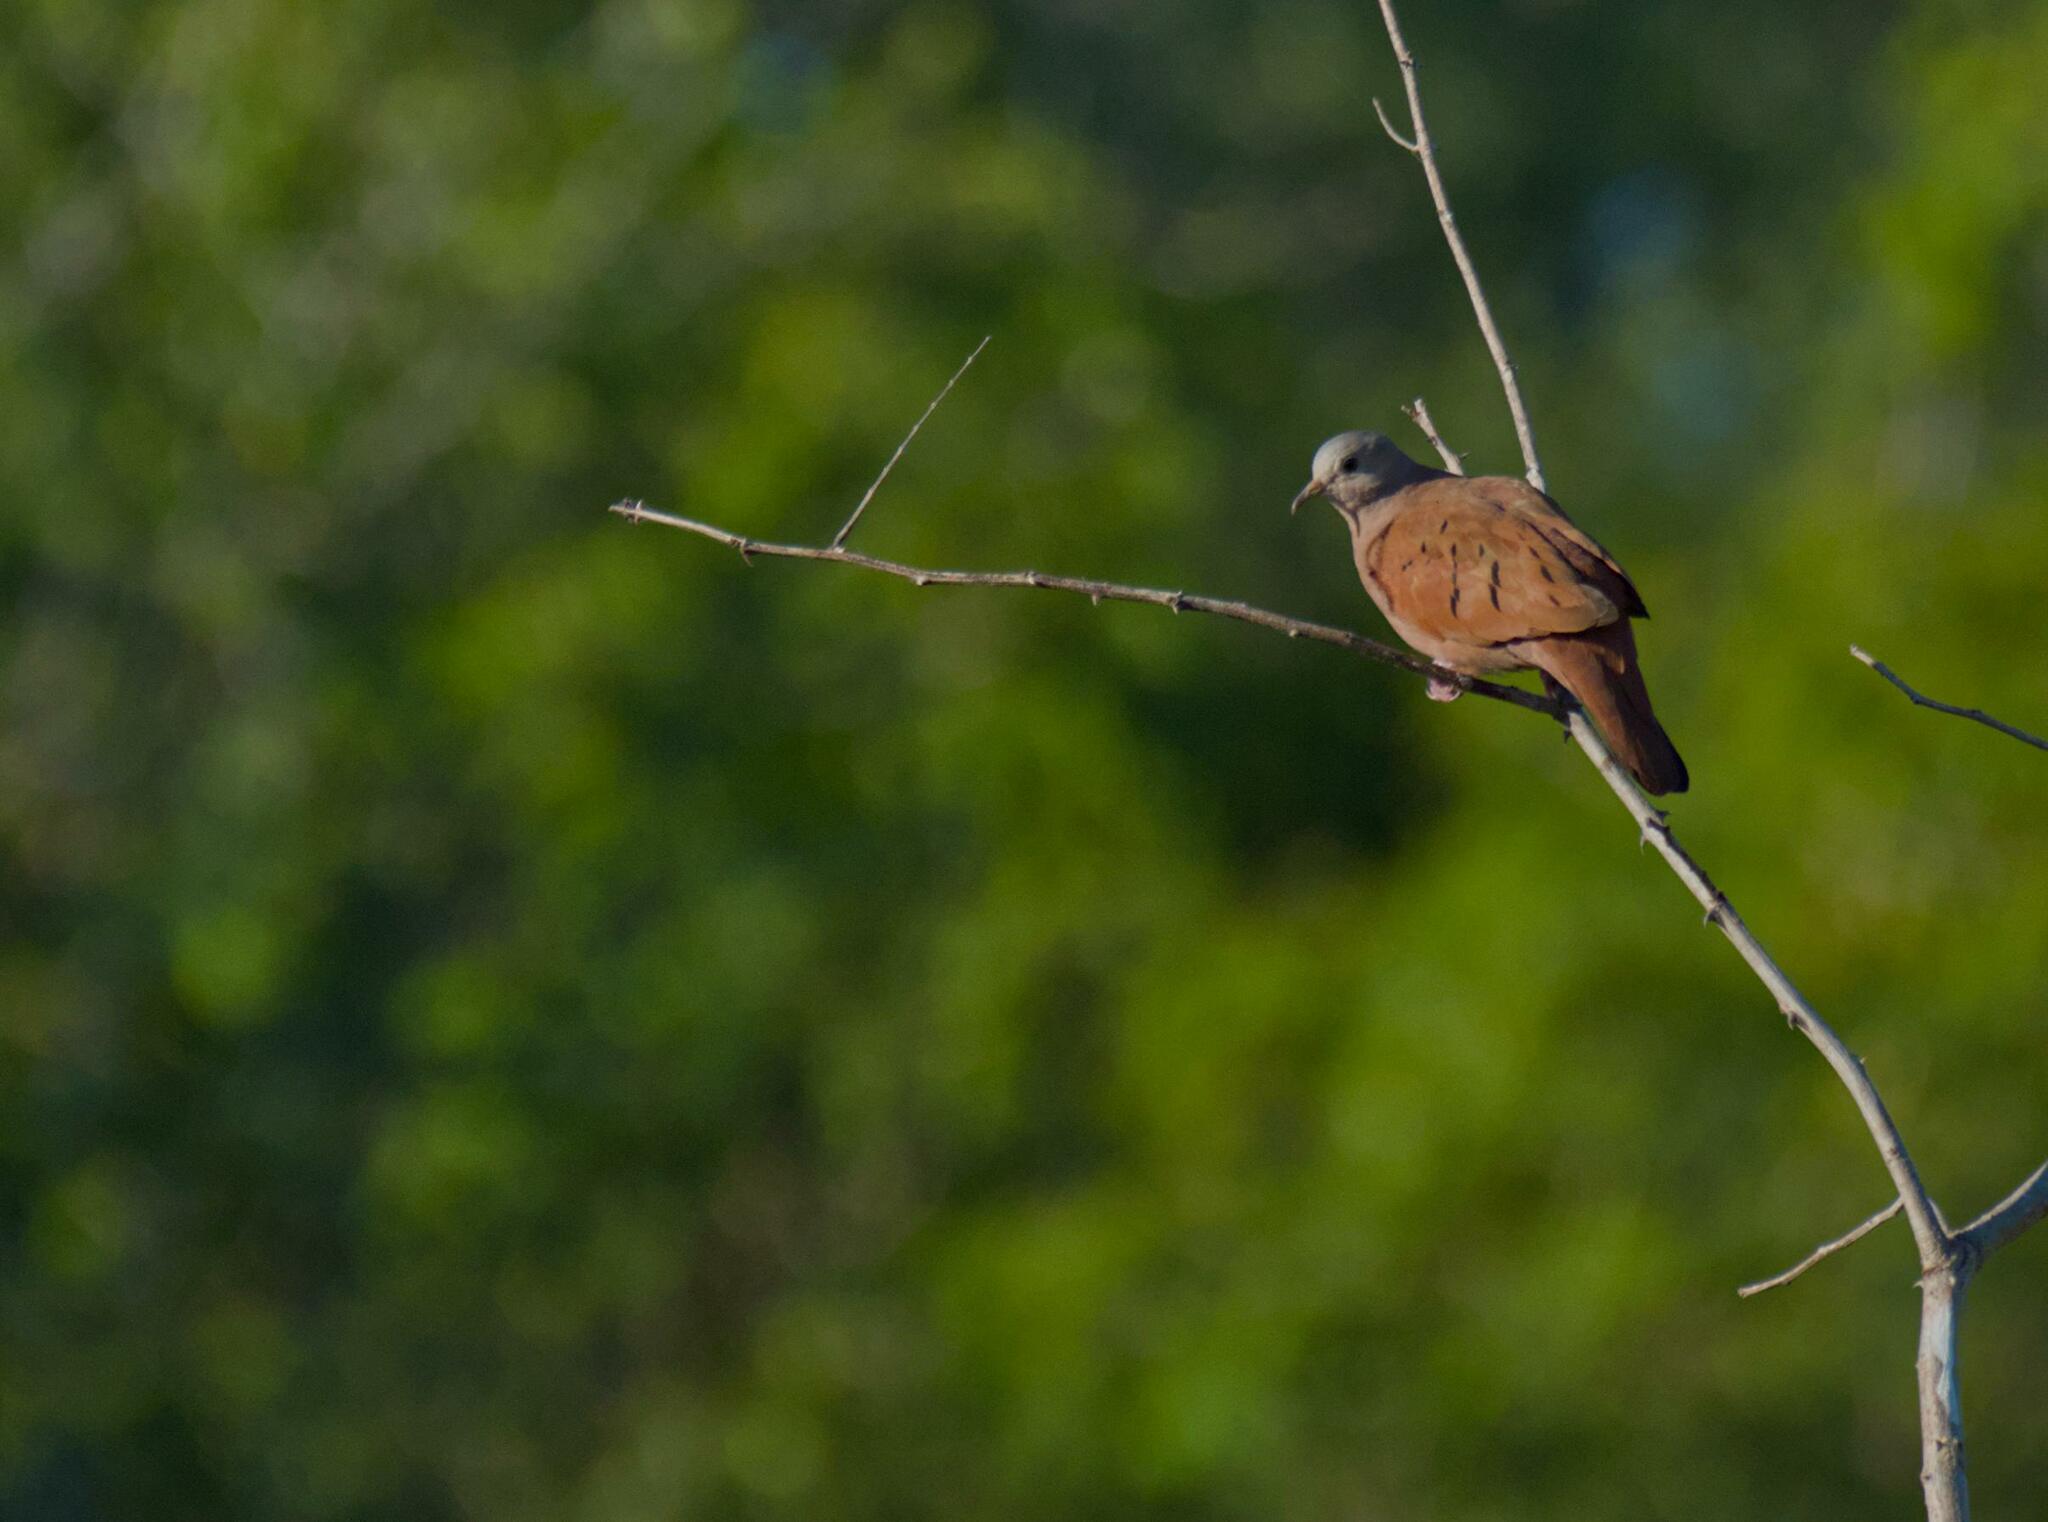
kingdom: Animalia
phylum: Chordata
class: Aves
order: Columbiformes
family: Columbidae
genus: Columbina
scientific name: Columbina talpacoti
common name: Ruddy ground dove
